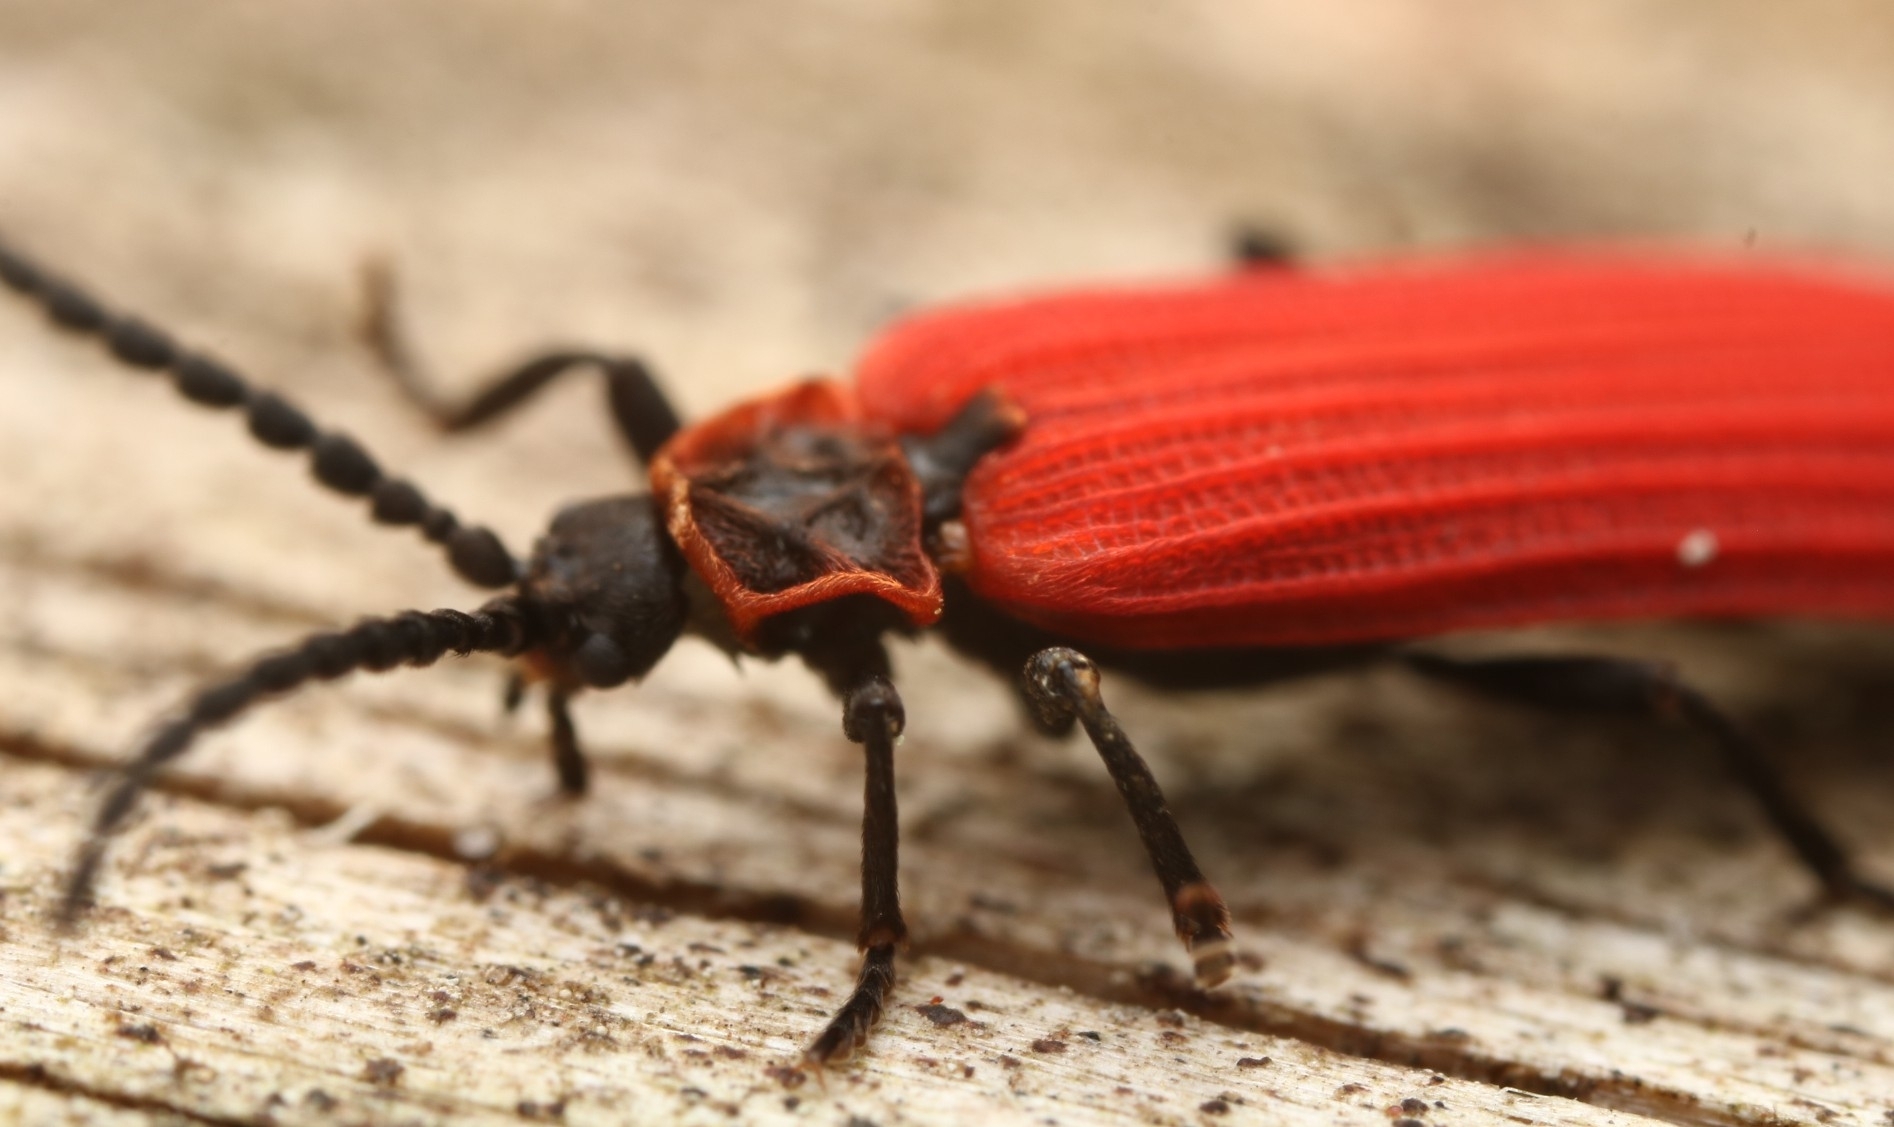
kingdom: Animalia
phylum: Arthropoda
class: Insecta
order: Coleoptera
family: Lycidae
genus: Dictyoptera
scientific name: Dictyoptera aurora
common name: Golden net-winged beetle
